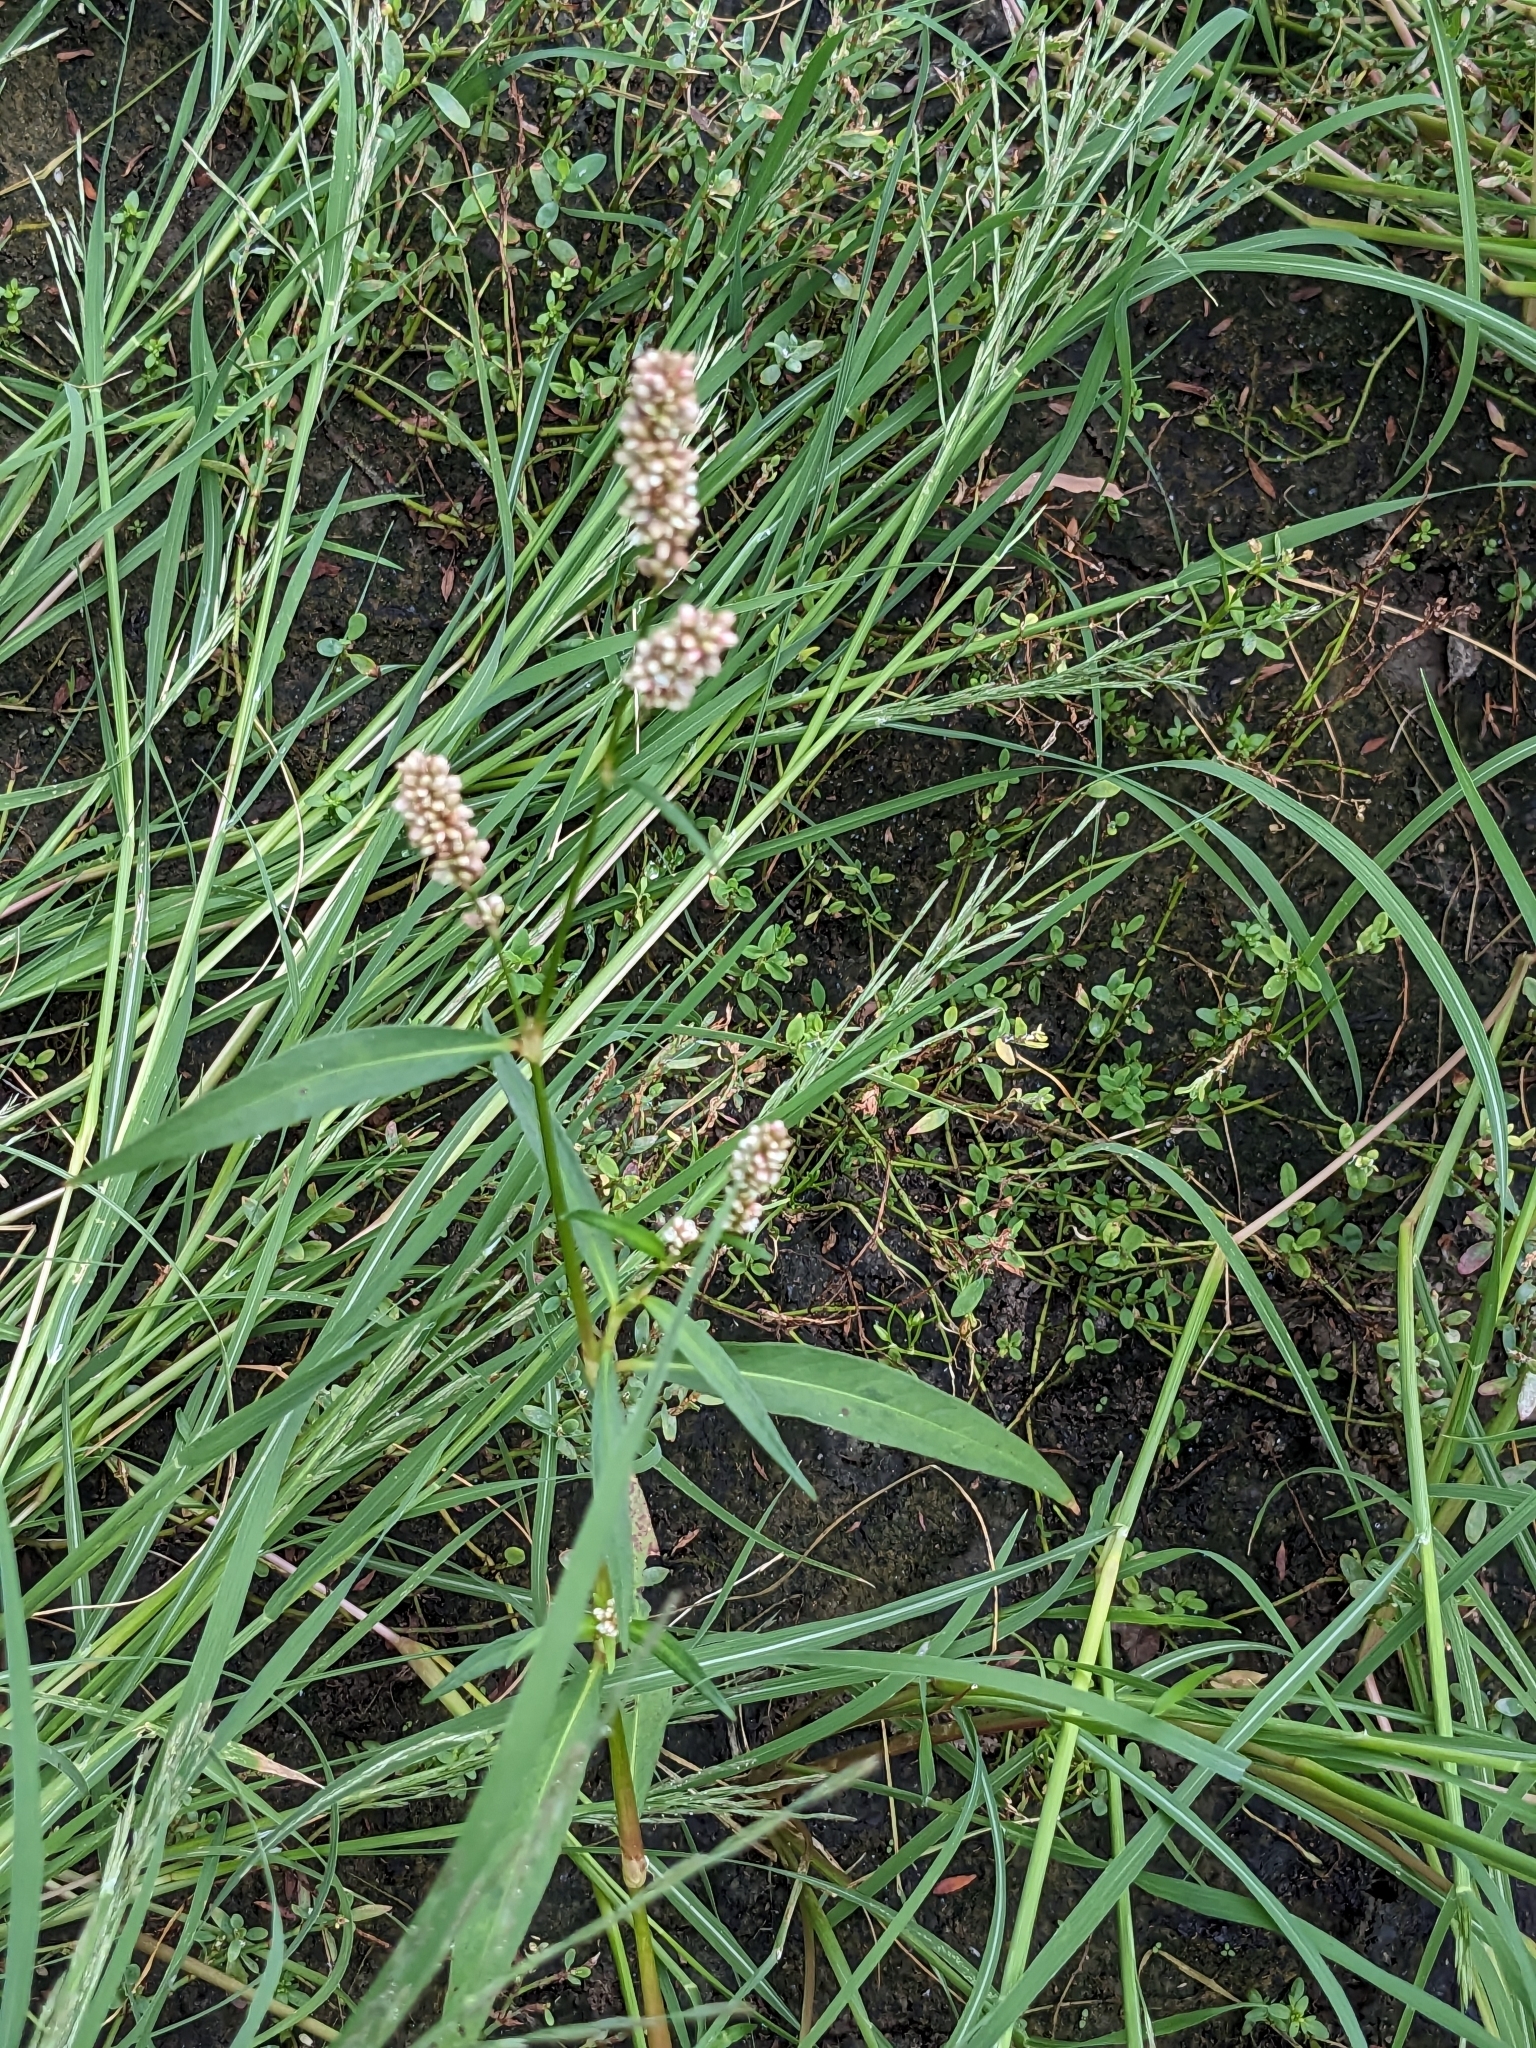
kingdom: Plantae
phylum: Tracheophyta
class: Magnoliopsida
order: Caryophyllales
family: Polygonaceae
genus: Persicaria
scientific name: Persicaria maculosa
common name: Redshank
